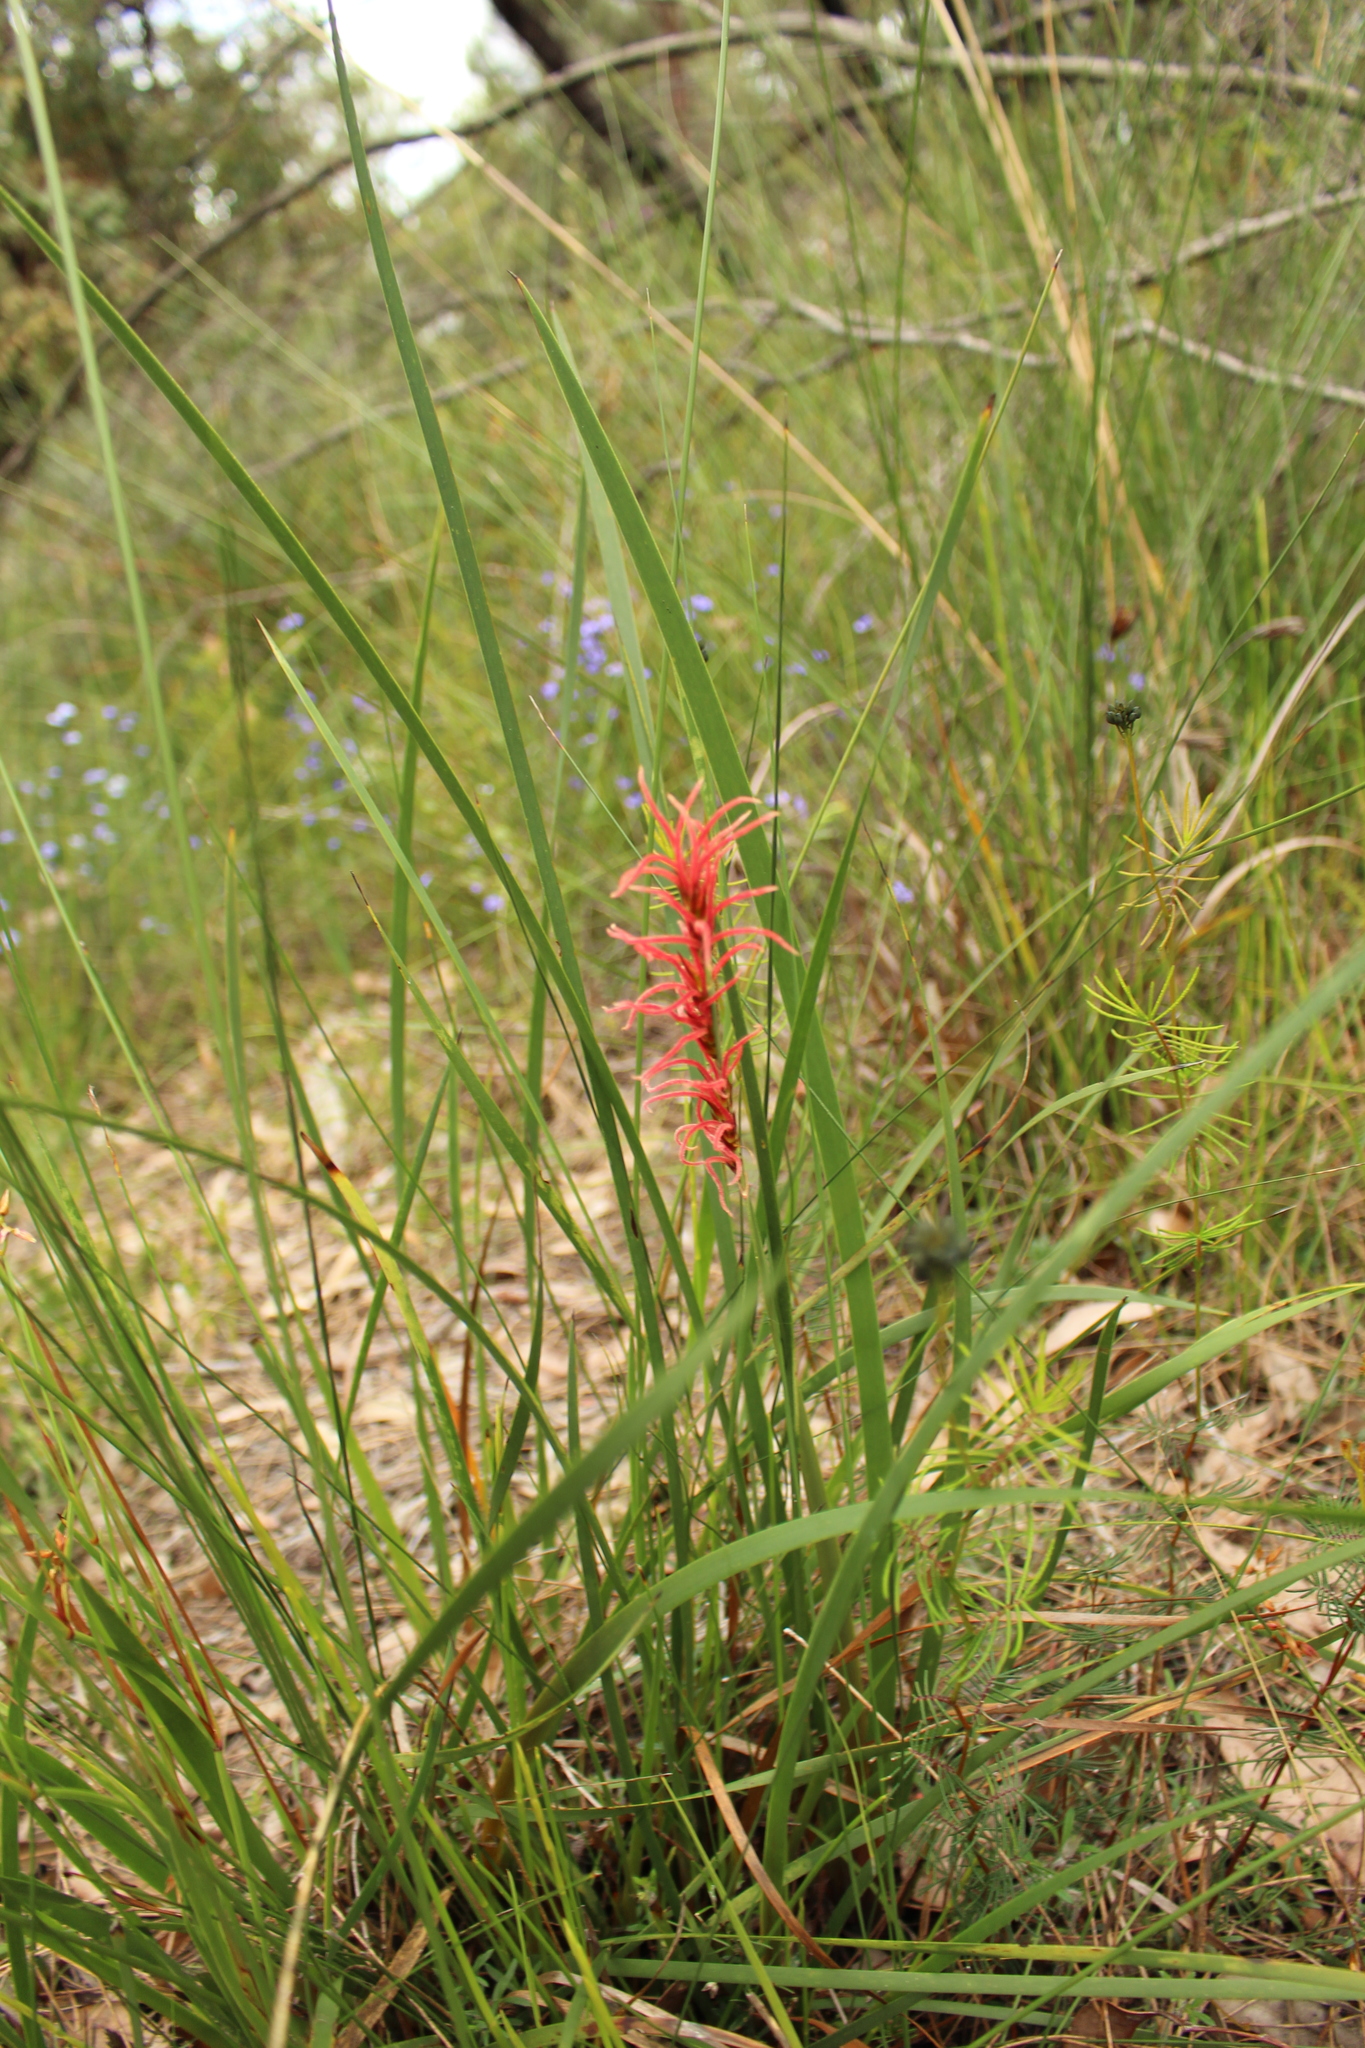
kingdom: Plantae
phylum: Tracheophyta
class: Liliopsida
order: Poales
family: Restionaceae
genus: Anarthria
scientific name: Anarthria scabra
